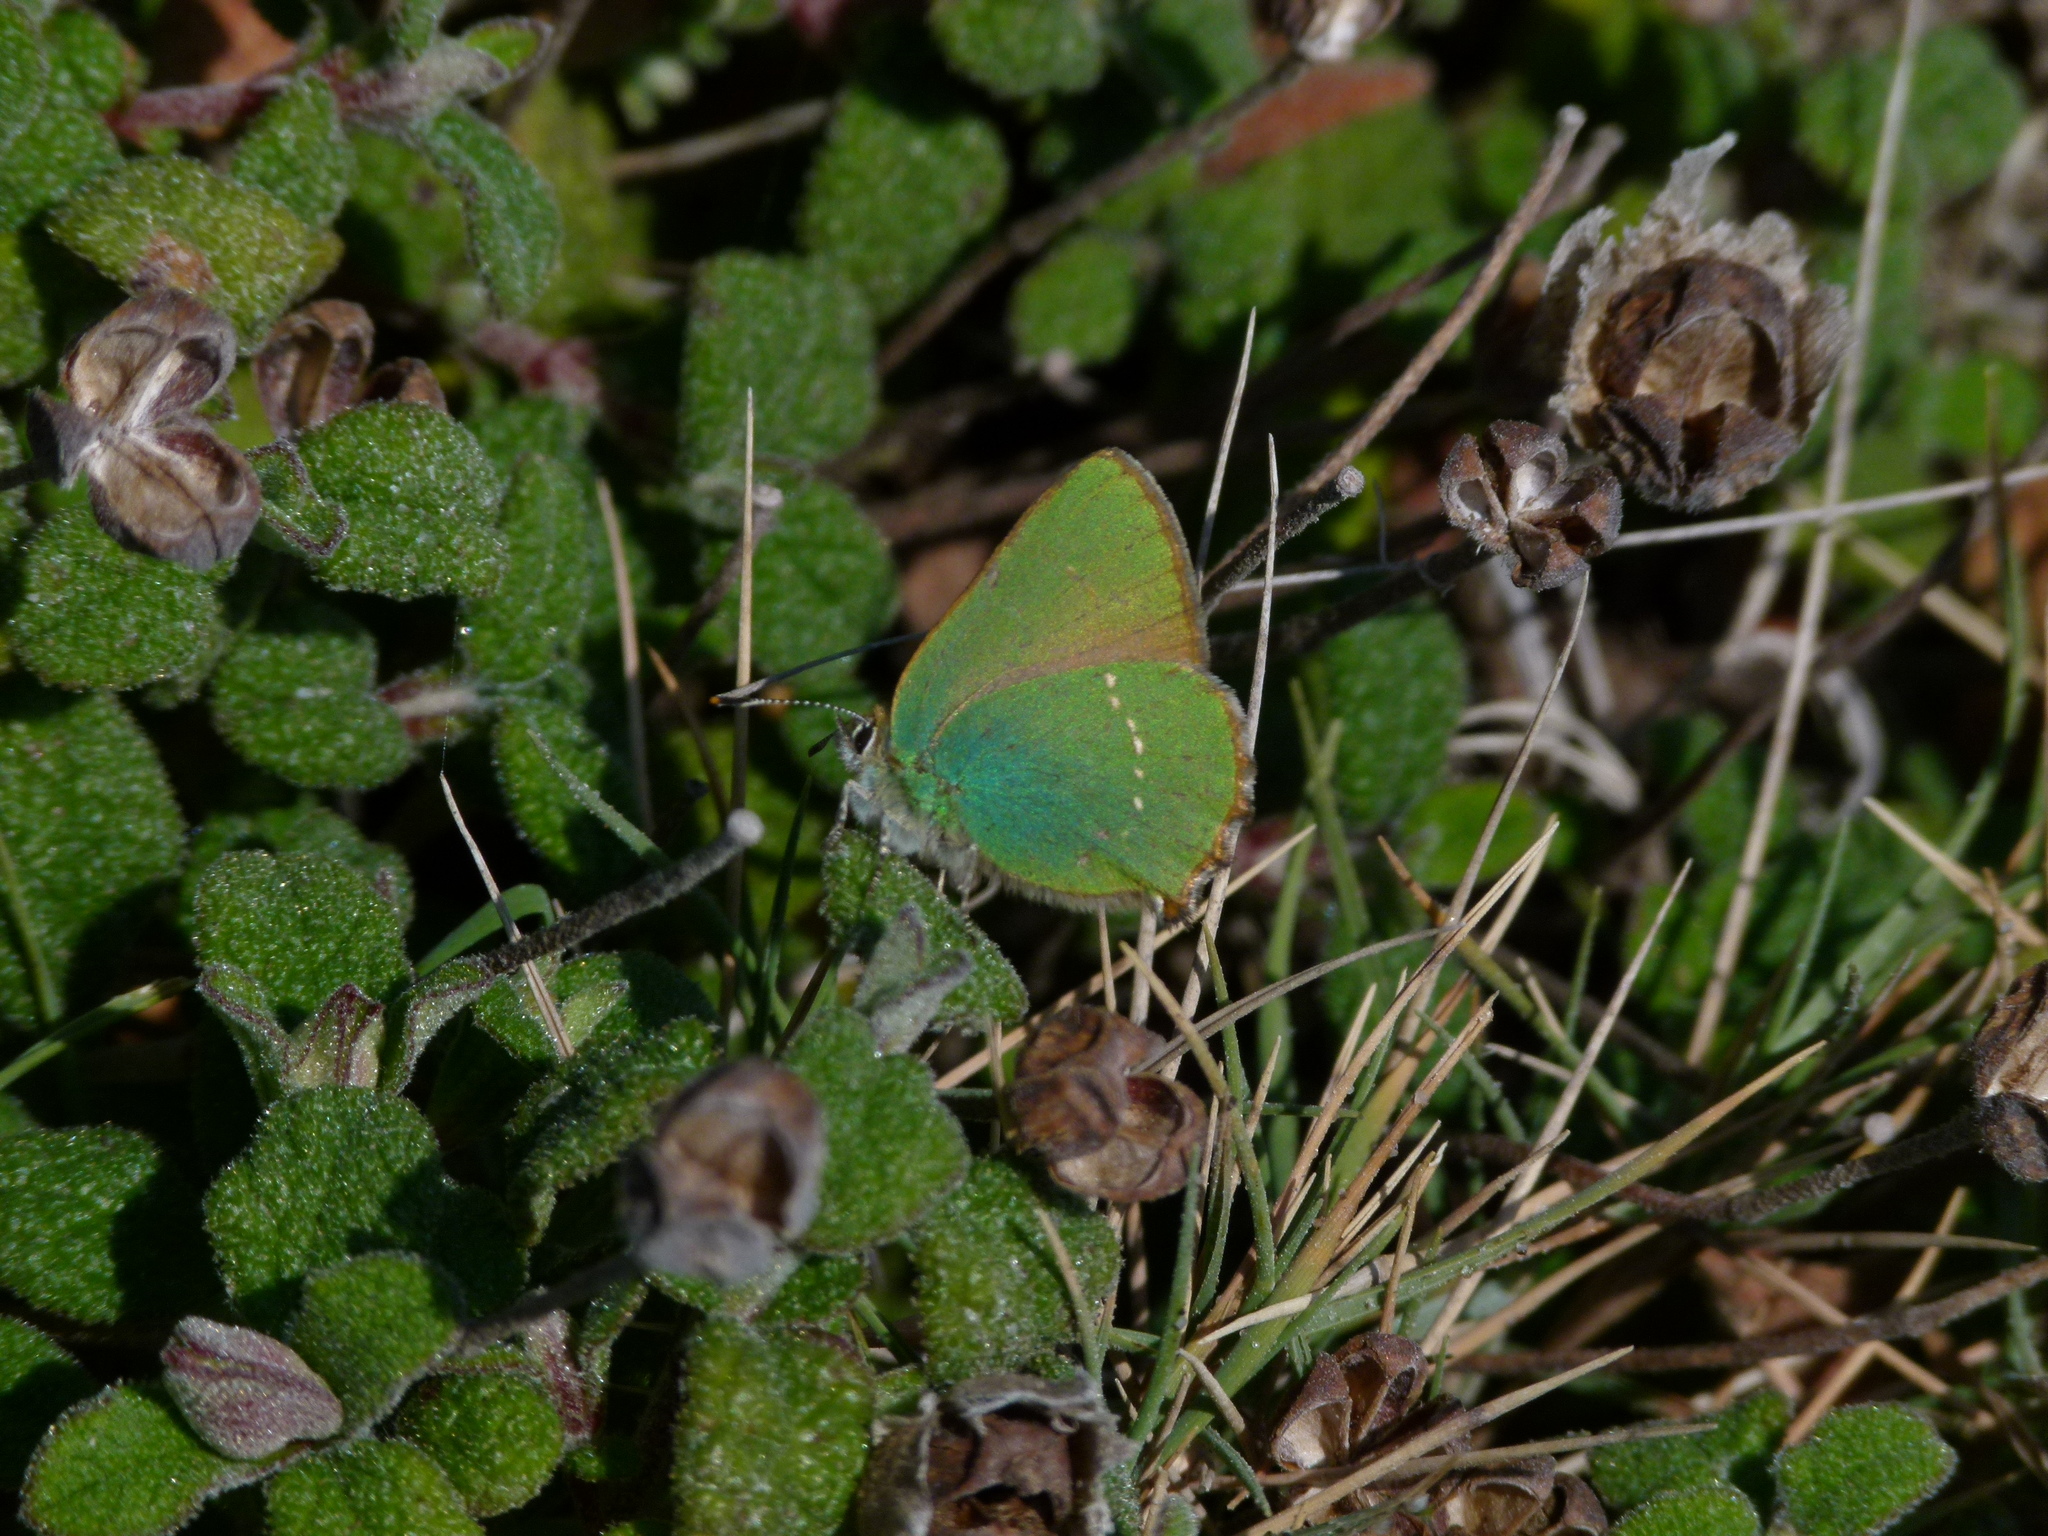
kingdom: Animalia
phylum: Arthropoda
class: Insecta
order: Lepidoptera
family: Lycaenidae
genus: Callophrys
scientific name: Callophrys rubi
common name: Green hairstreak
